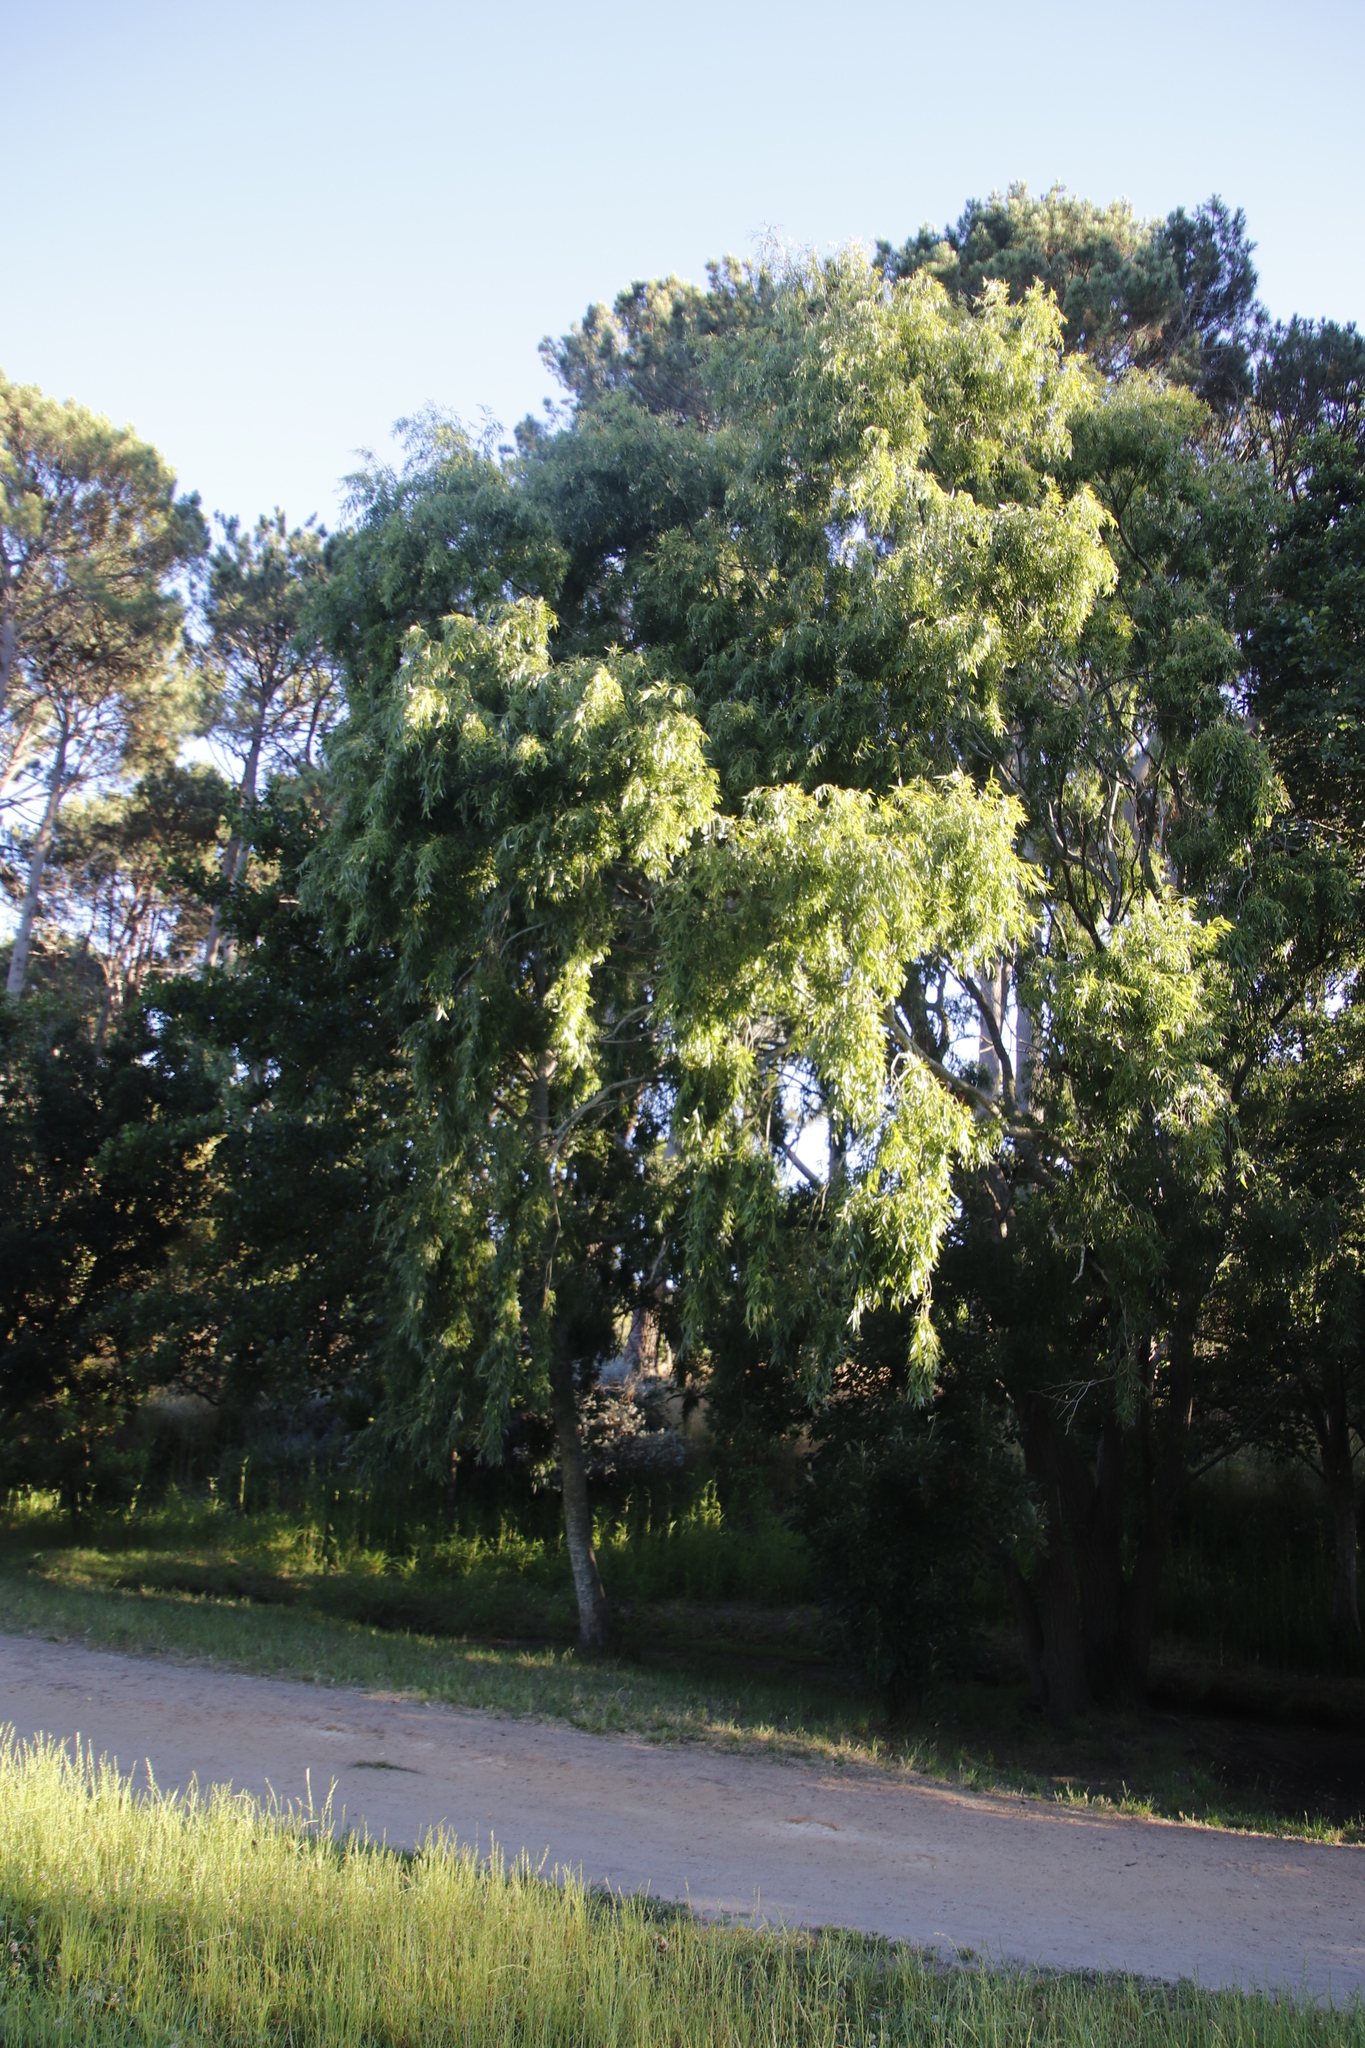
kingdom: Plantae
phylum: Tracheophyta
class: Magnoliopsida
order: Malpighiales
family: Salicaceae
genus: Salix
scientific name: Salix babylonica
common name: Weeping willow
